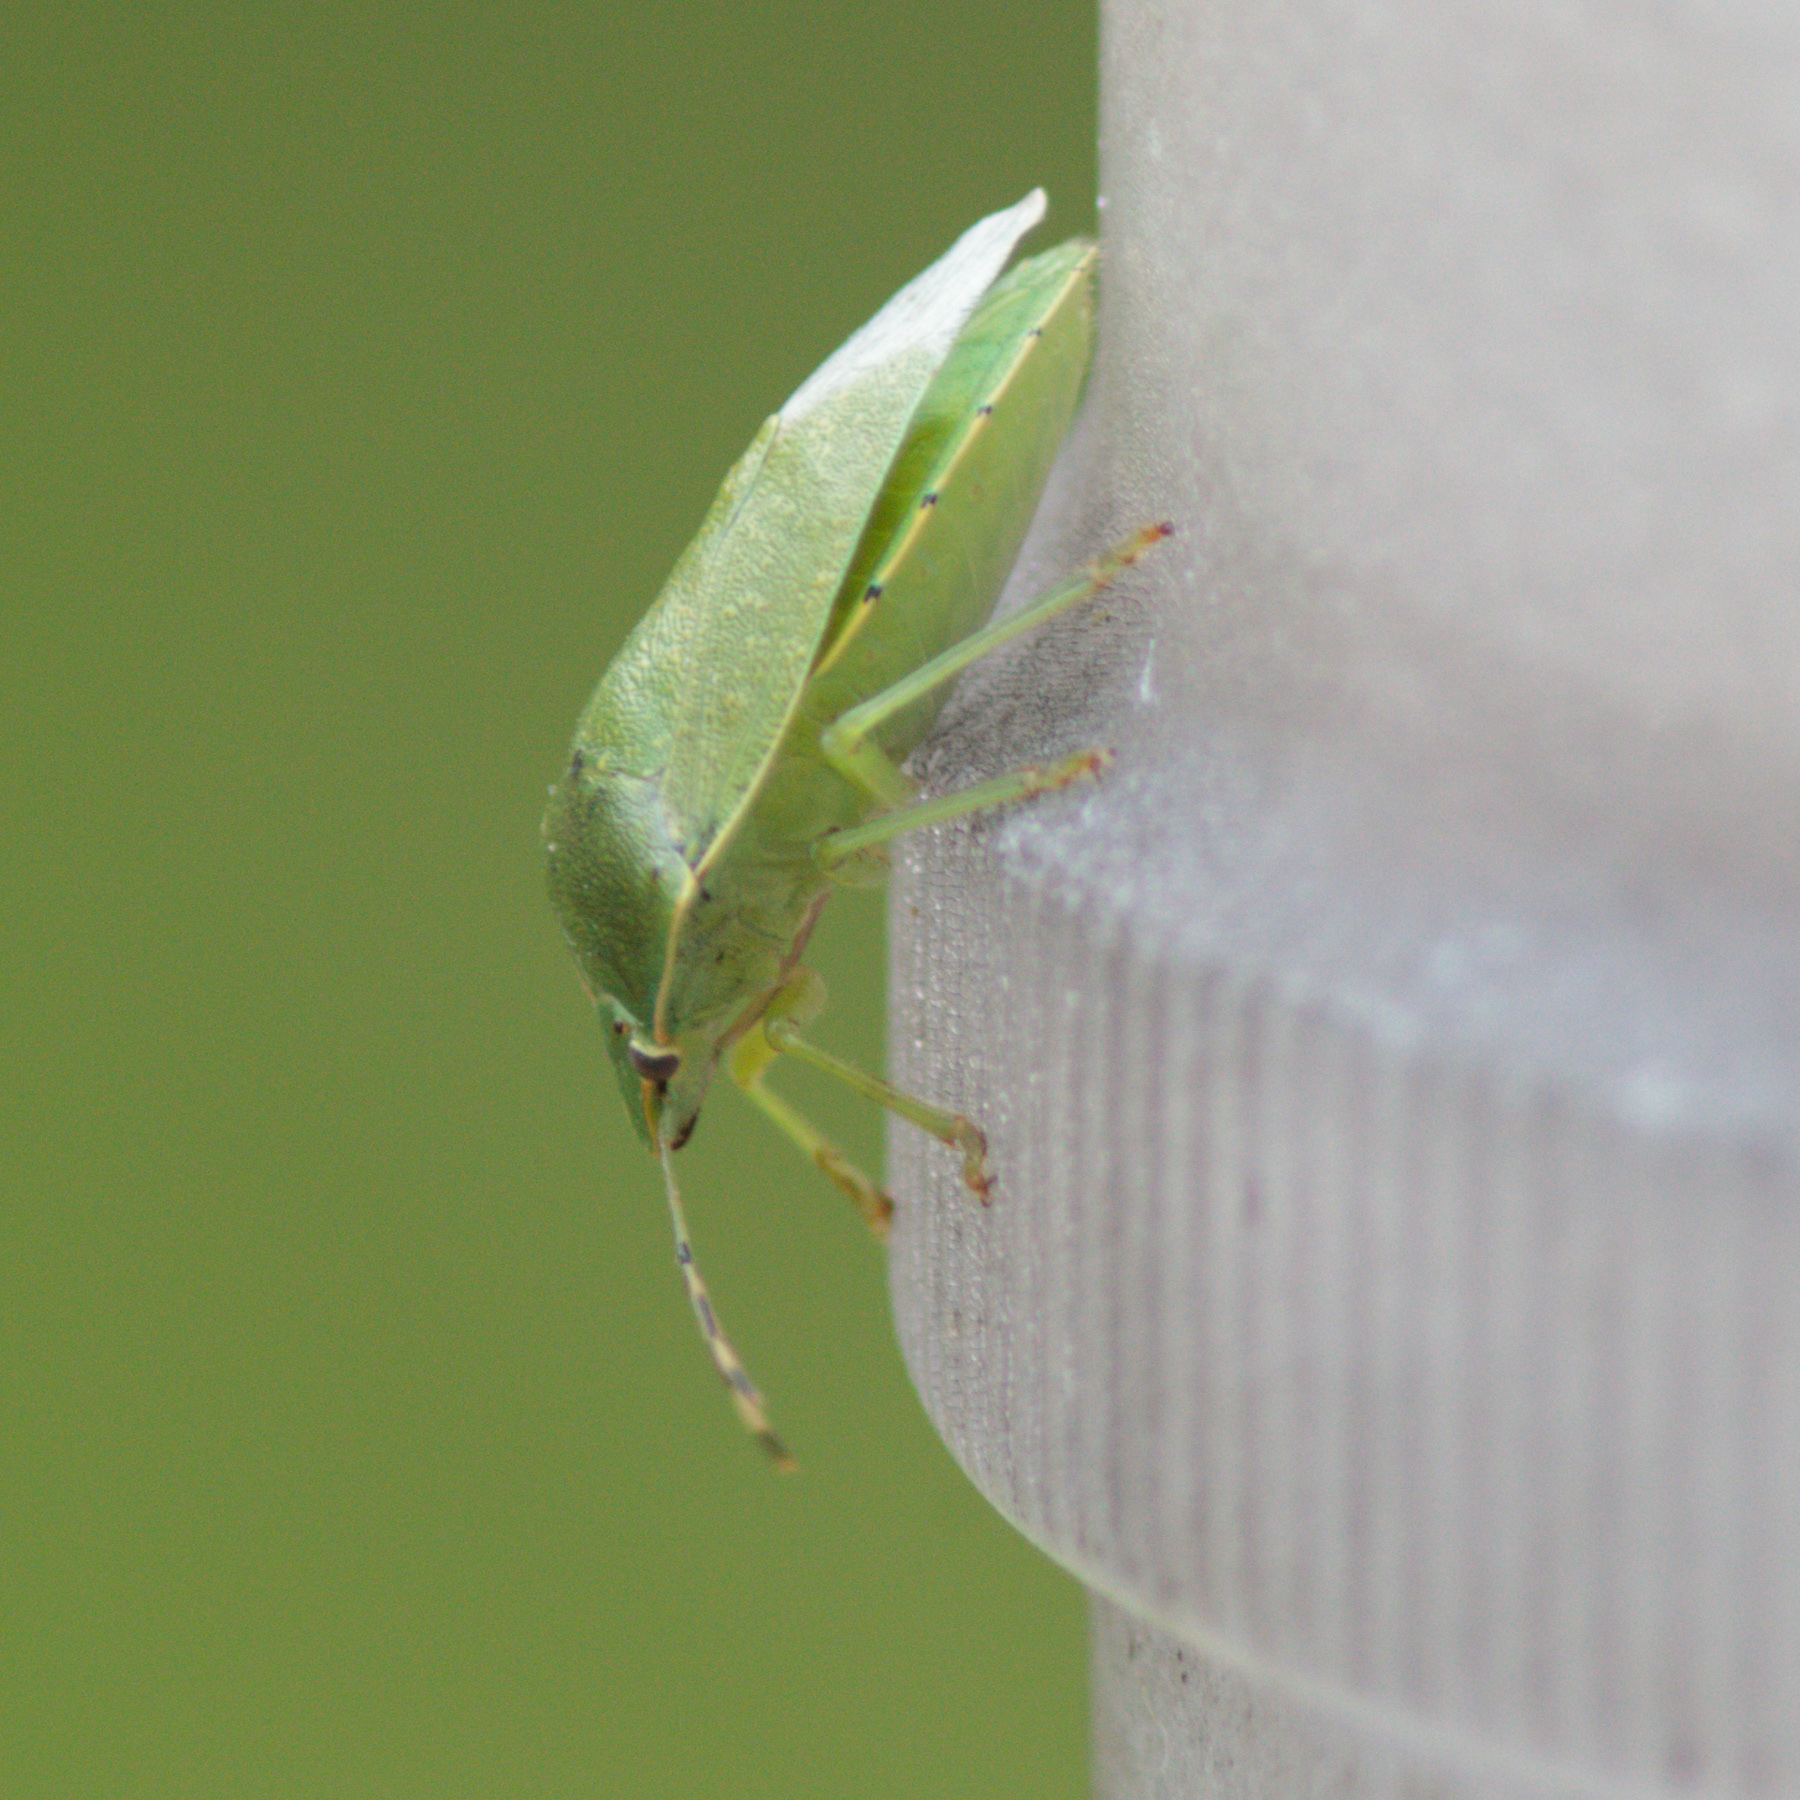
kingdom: Animalia
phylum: Arthropoda
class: Insecta
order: Hemiptera
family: Pentatomidae
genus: Chinavia
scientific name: Chinavia hilaris
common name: Green stink bug
